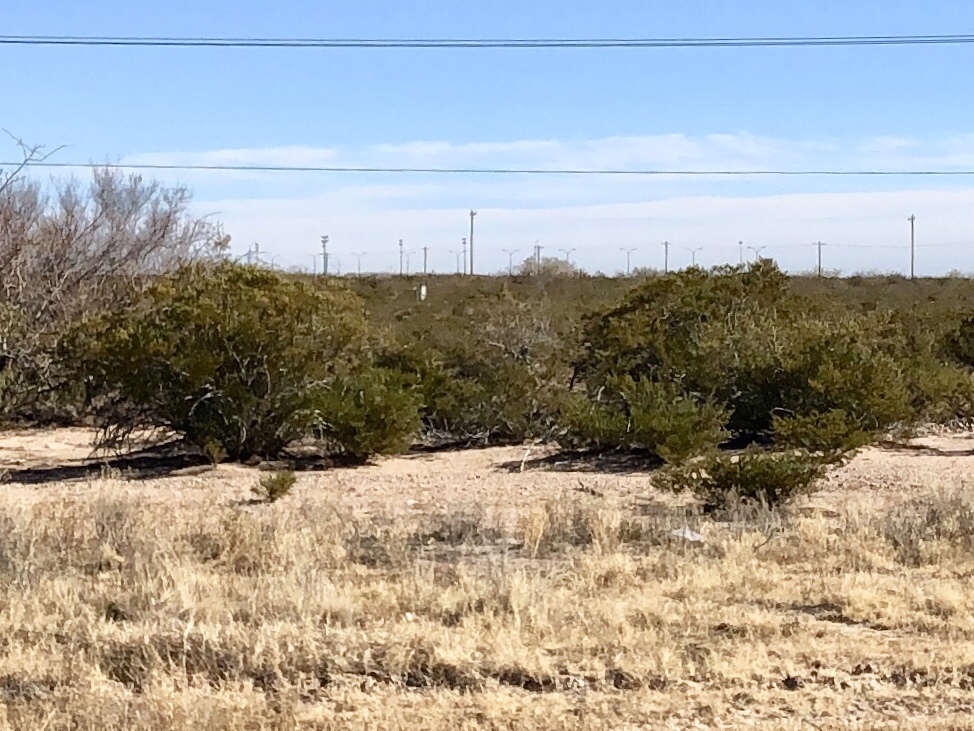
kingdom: Plantae
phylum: Tracheophyta
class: Magnoliopsida
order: Zygophyllales
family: Zygophyllaceae
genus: Larrea
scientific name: Larrea tridentata
